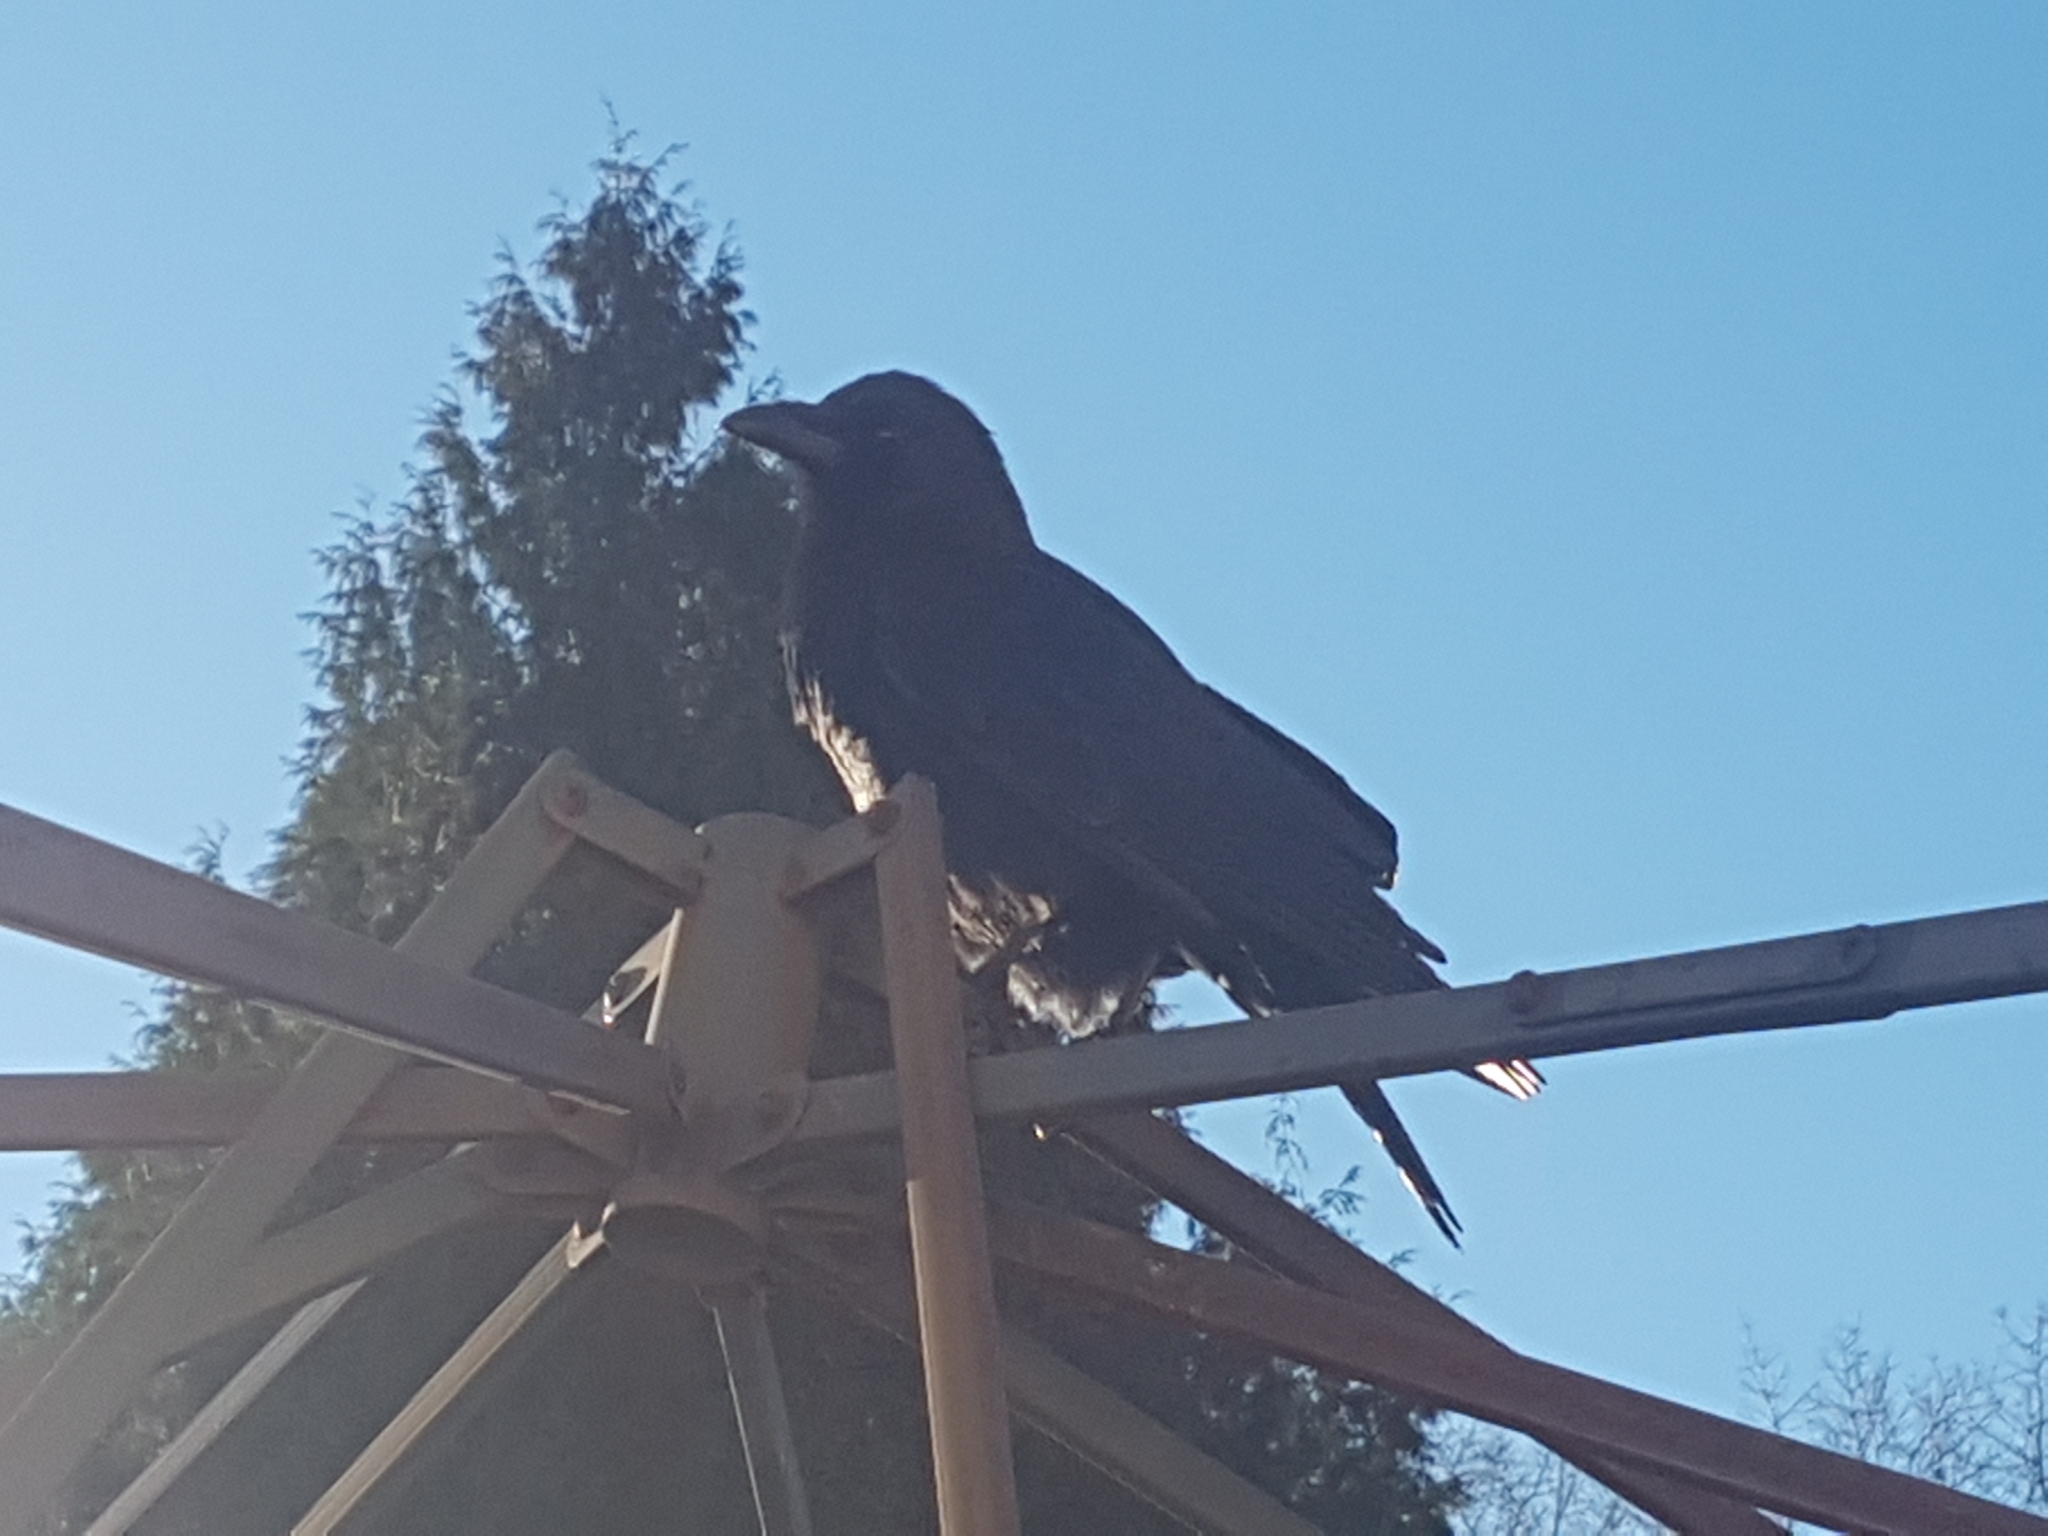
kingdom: Animalia
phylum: Chordata
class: Aves
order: Passeriformes
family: Corvidae
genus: Corvus
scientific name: Corvus brachyrhynchos
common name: American crow
